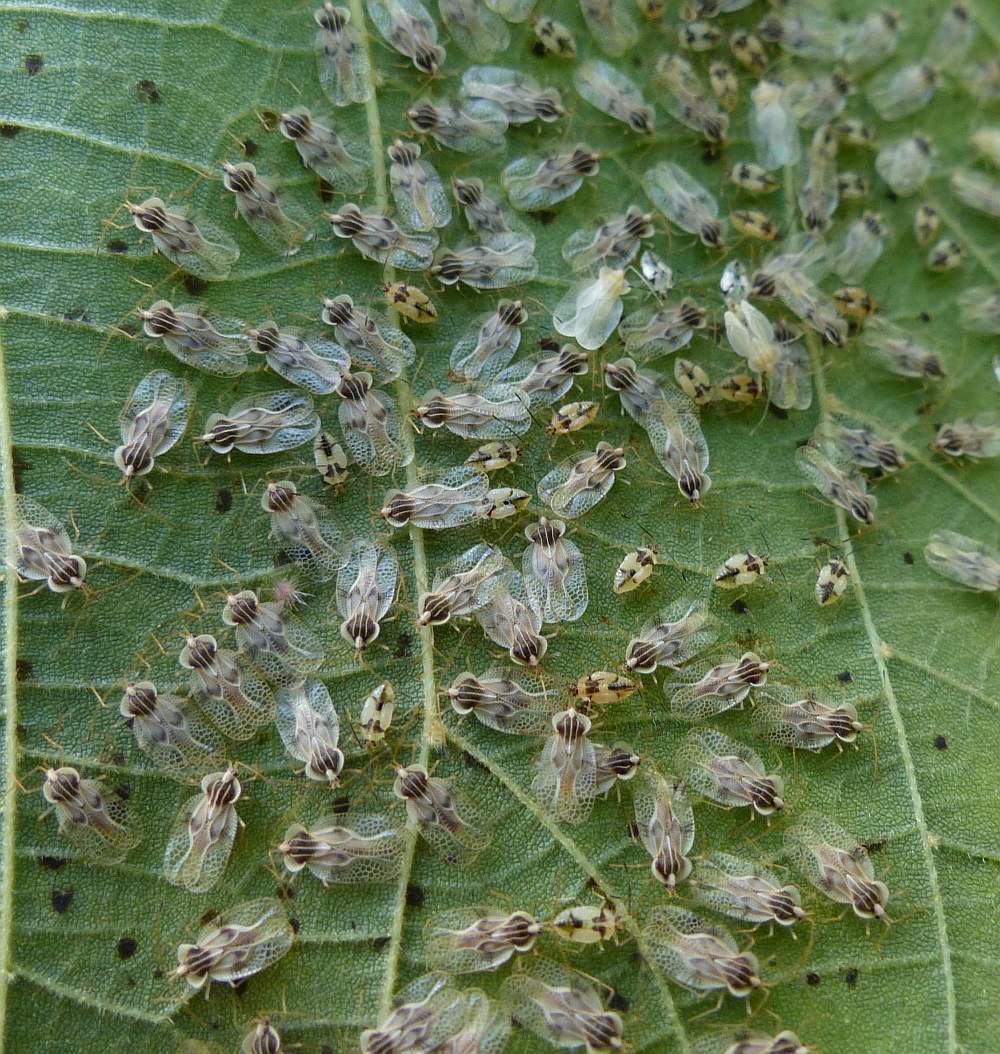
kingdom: Animalia
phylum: Arthropoda
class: Insecta
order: Hemiptera
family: Tingidae
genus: Gargaphia
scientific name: Gargaphia tiliae
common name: Basswood lace bug
